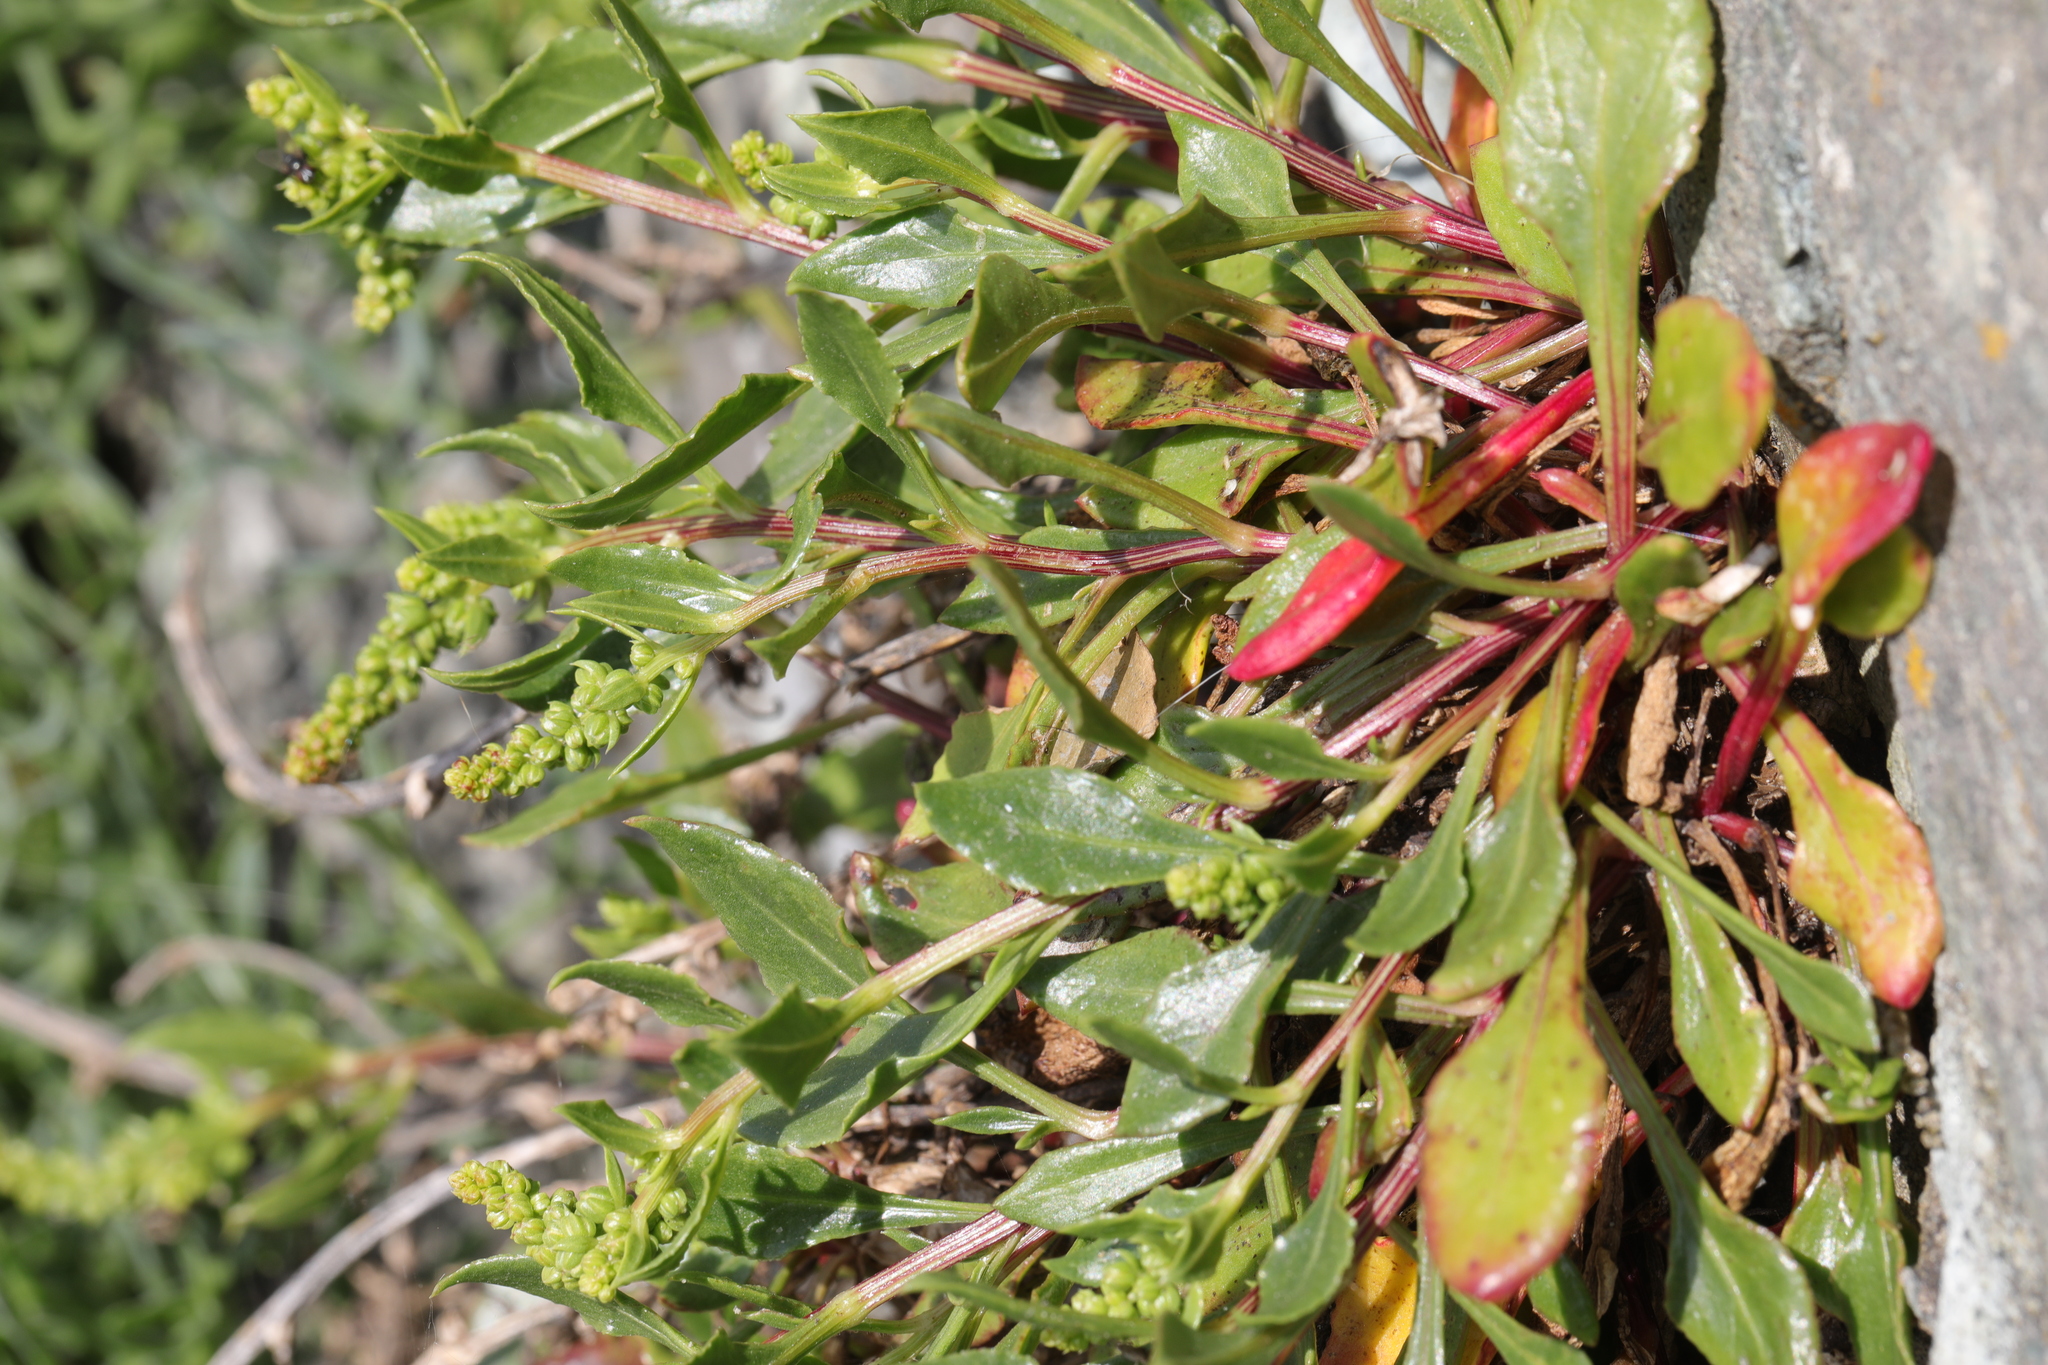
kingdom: Plantae
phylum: Tracheophyta
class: Magnoliopsida
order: Caryophyllales
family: Amaranthaceae
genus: Beta
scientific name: Beta vulgaris
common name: Beet
